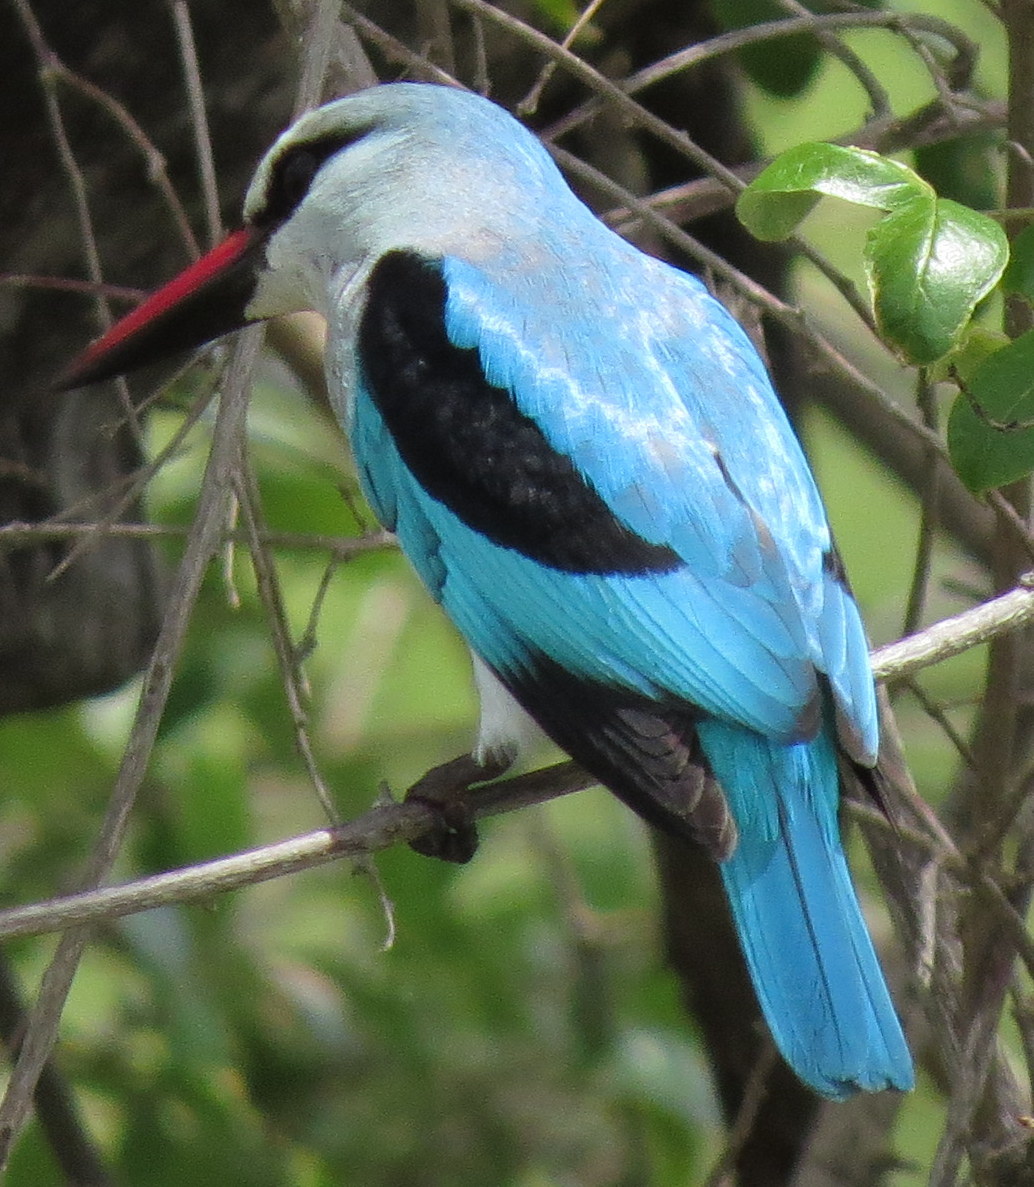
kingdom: Animalia
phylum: Chordata
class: Aves
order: Coraciiformes
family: Alcedinidae
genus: Halcyon
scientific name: Halcyon senegalensis
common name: Woodland kingfisher
